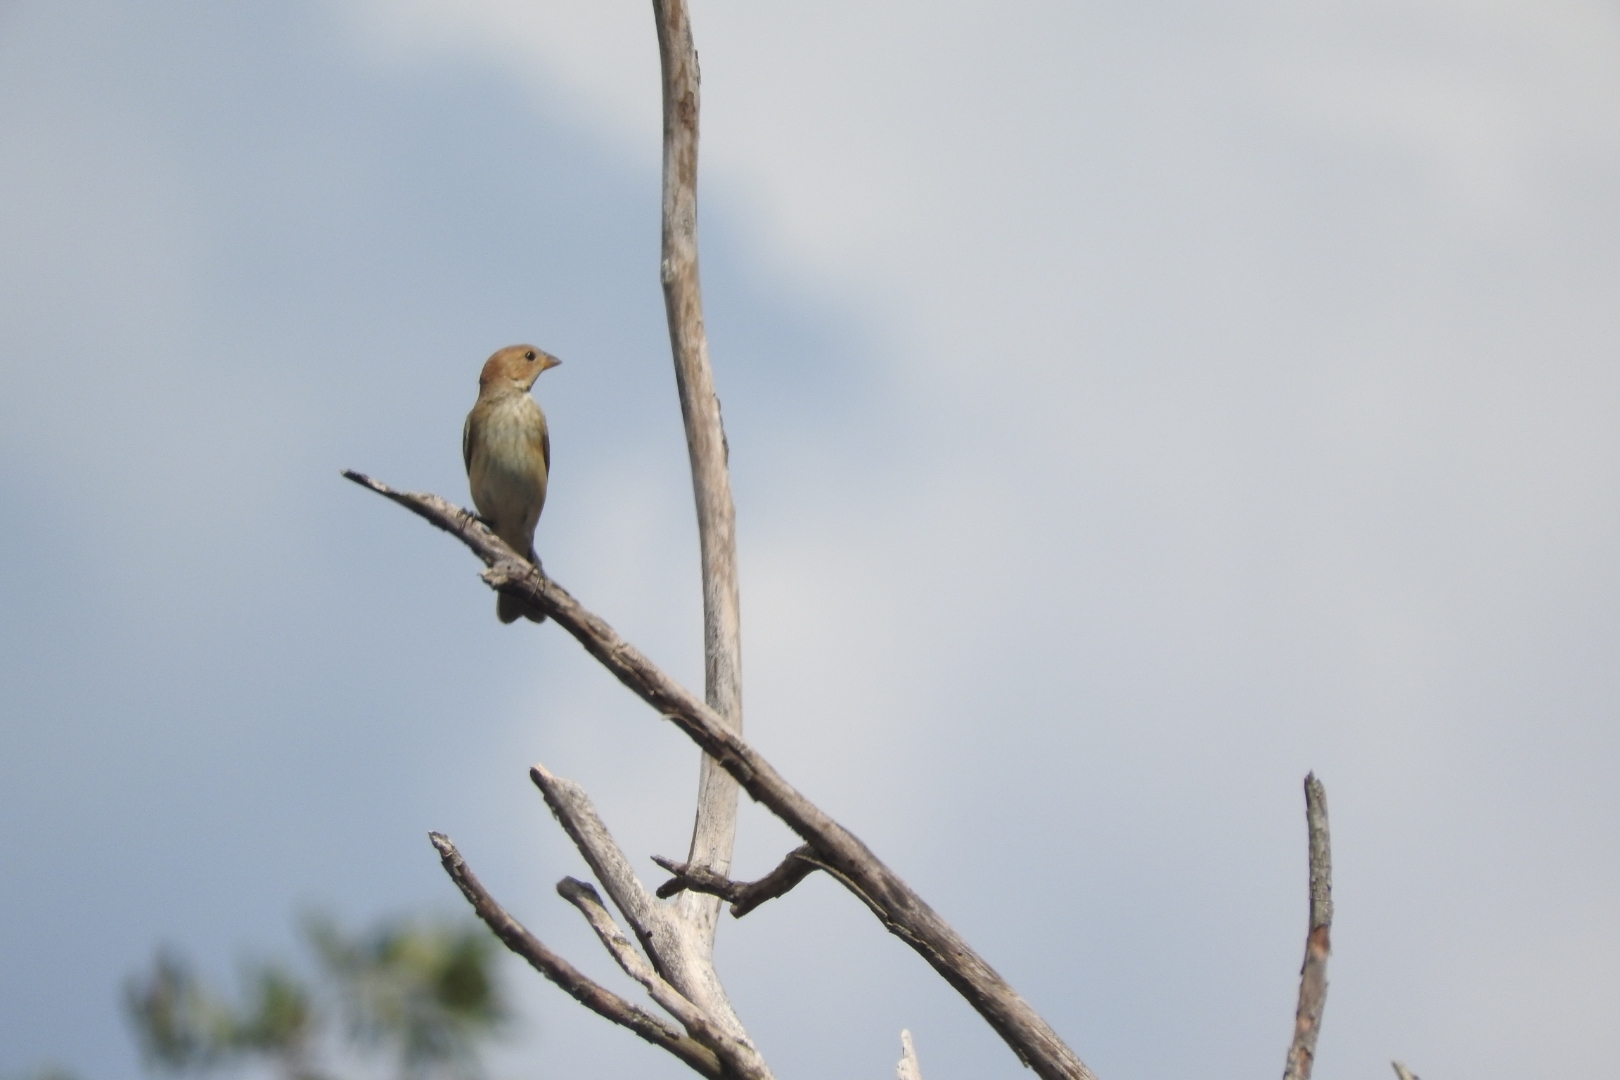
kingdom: Animalia
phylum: Chordata
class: Aves
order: Passeriformes
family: Cardinalidae
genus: Passerina
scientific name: Passerina cyanea
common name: Indigo bunting
